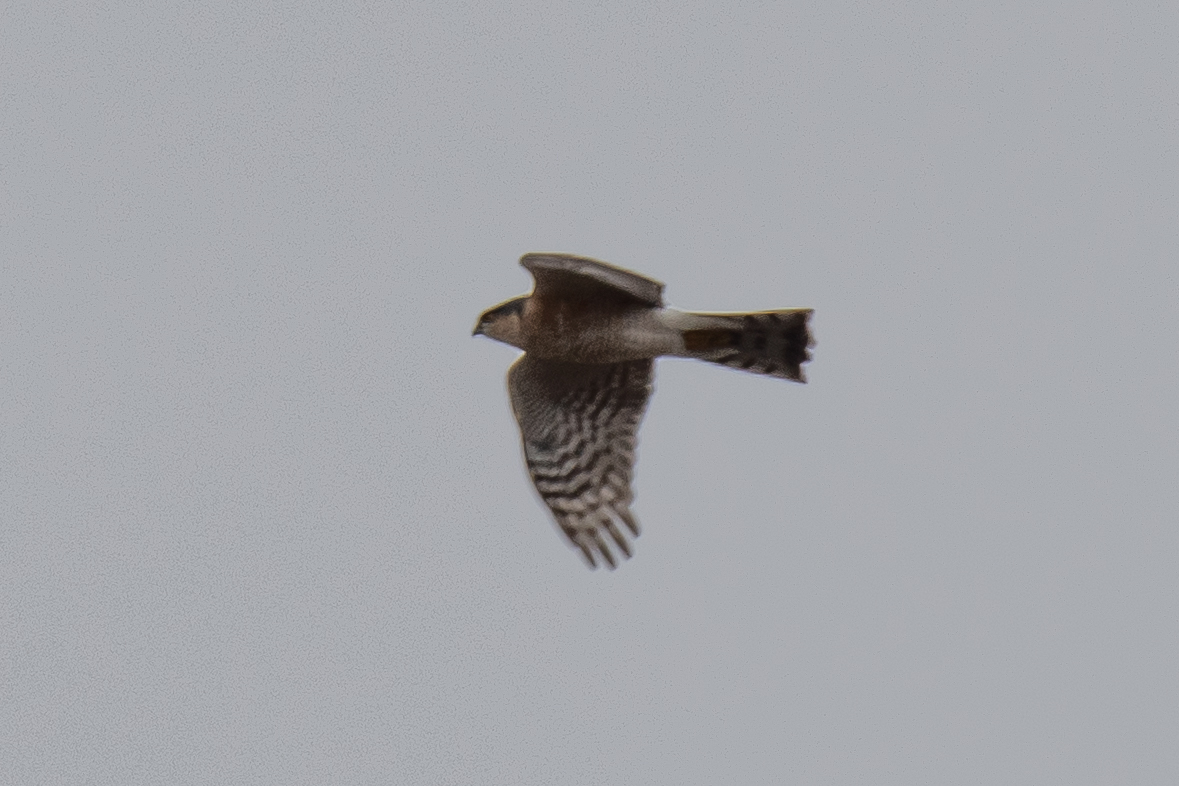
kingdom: Animalia
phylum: Chordata
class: Aves
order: Accipitriformes
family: Accipitridae
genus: Accipiter
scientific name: Accipiter nisus
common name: Eurasian sparrowhawk
